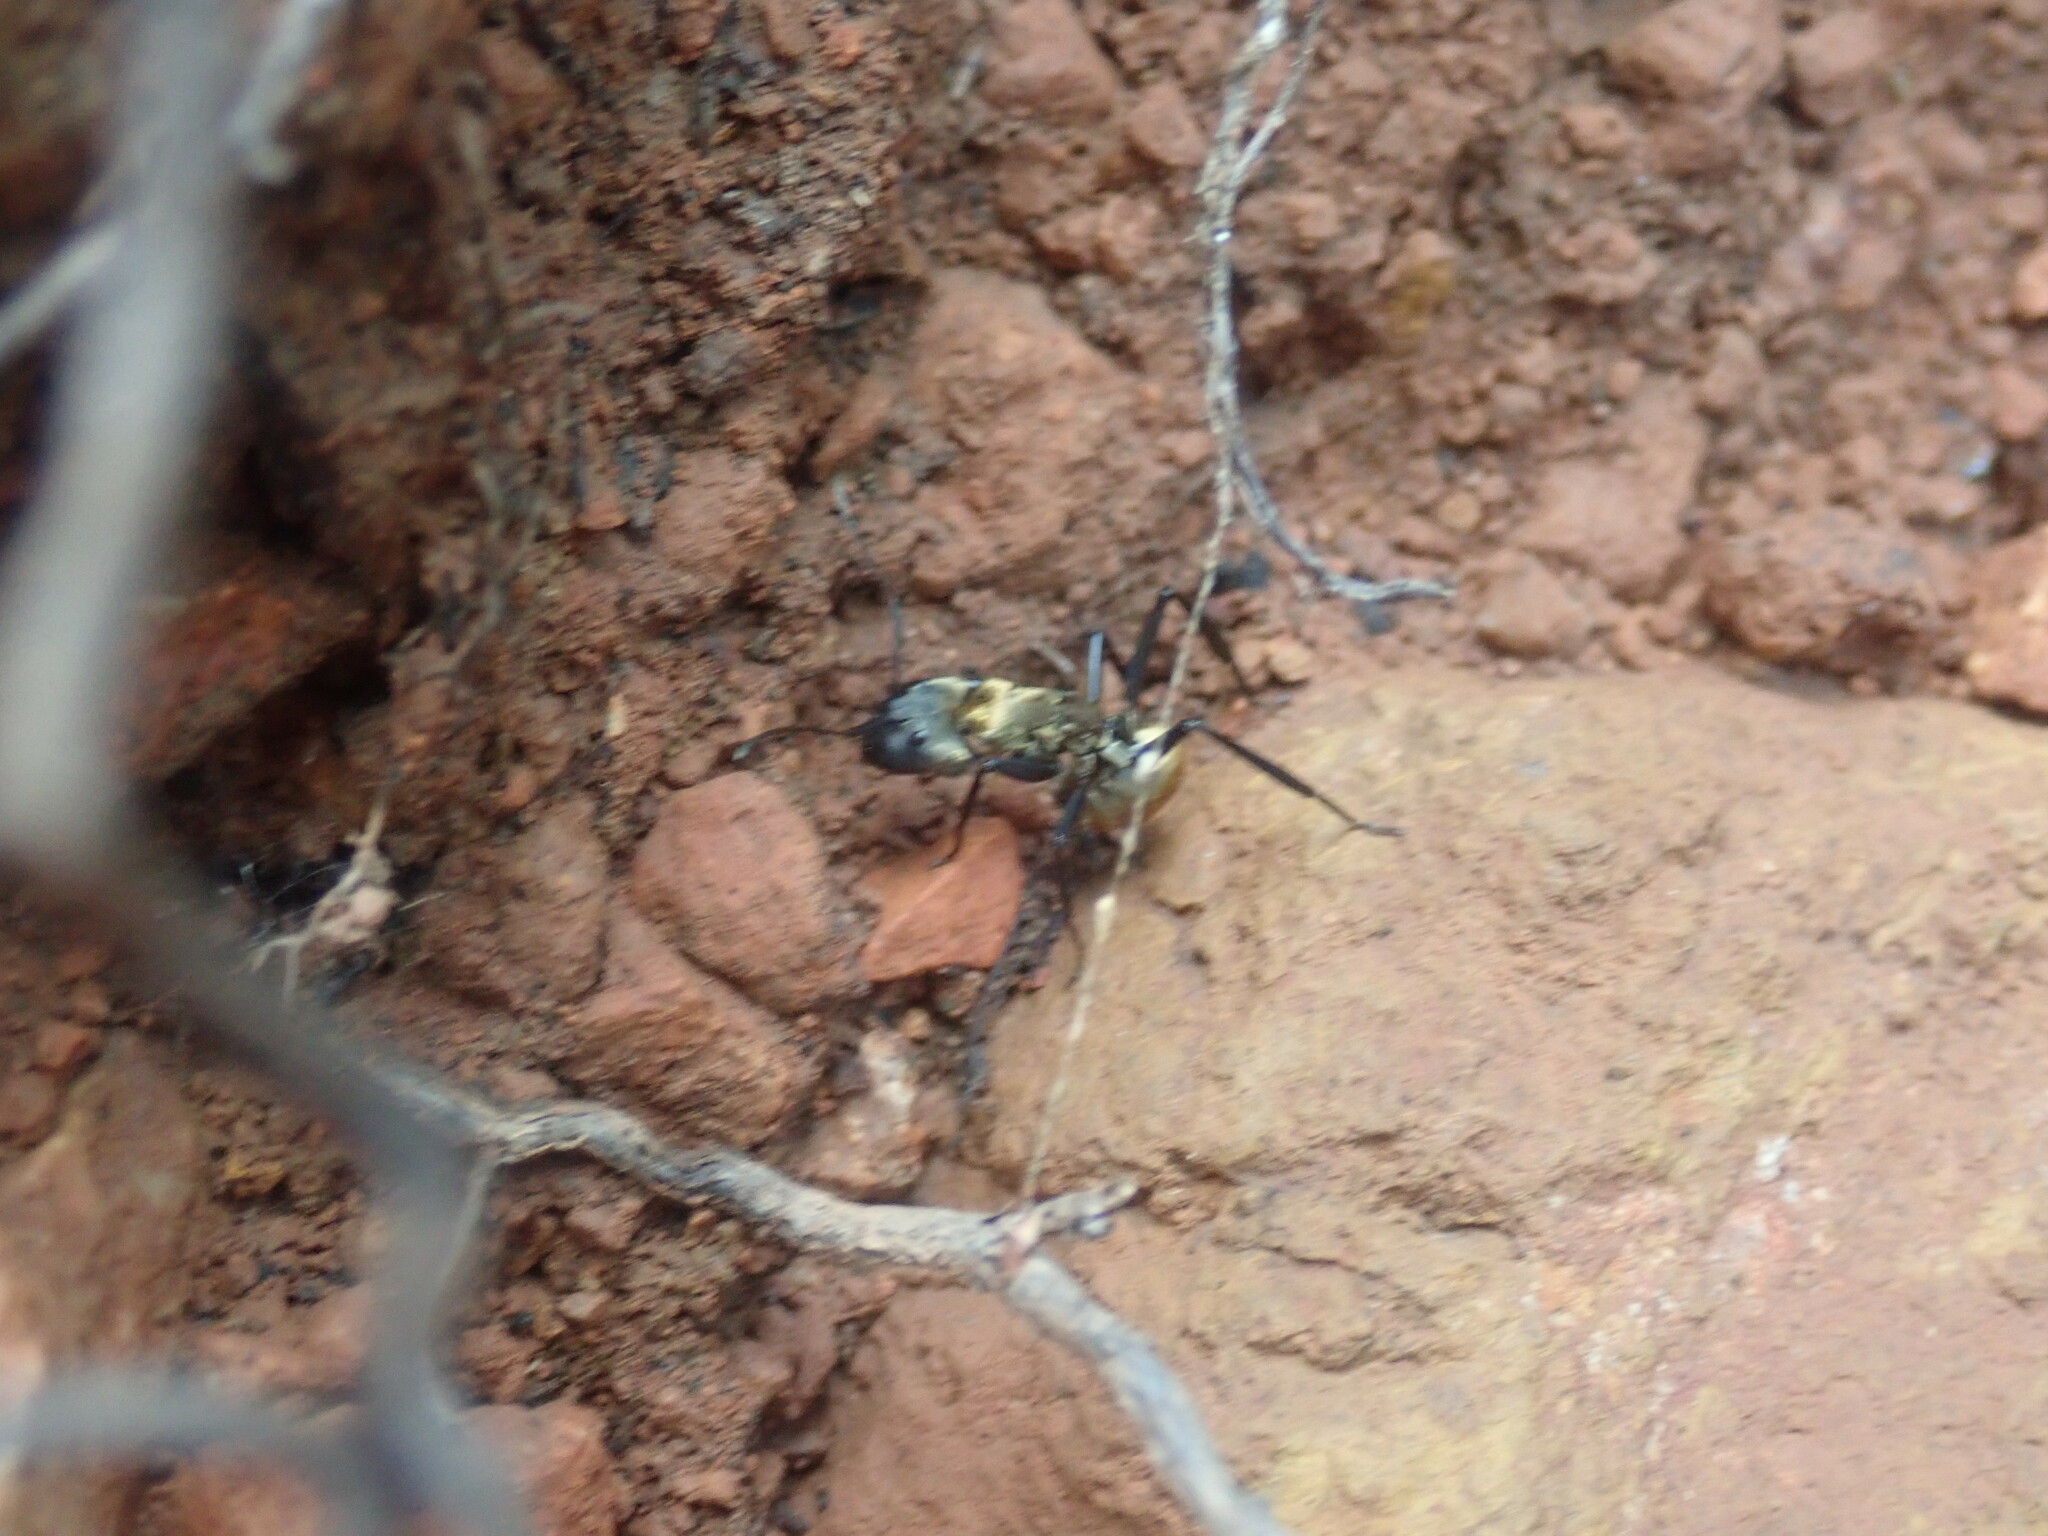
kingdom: Animalia
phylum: Arthropoda
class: Insecta
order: Hymenoptera
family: Formicidae
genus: Camponotus
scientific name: Camponotus sericeiventris
